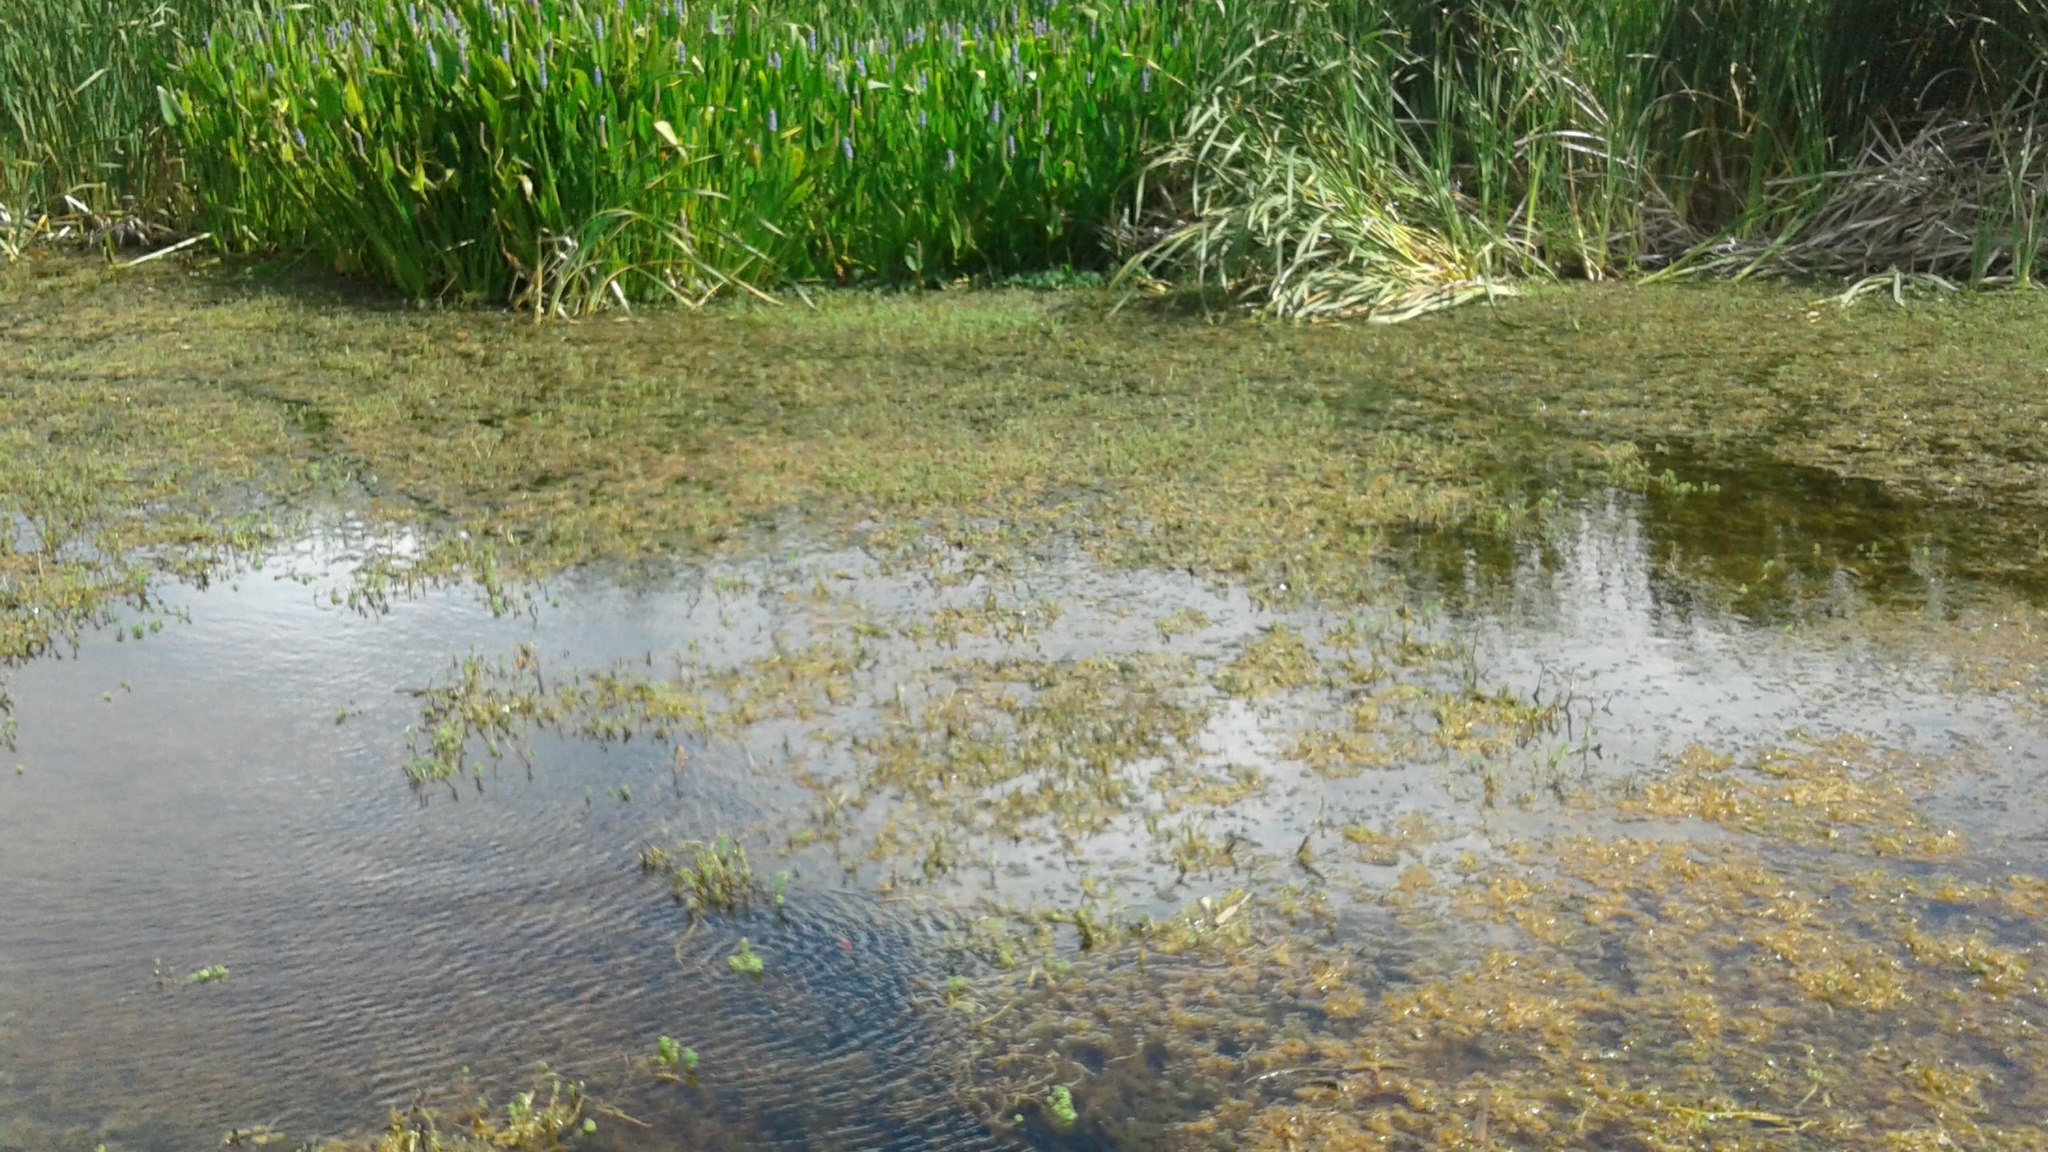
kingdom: Plantae
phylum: Tracheophyta
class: Liliopsida
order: Poales
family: Typhaceae
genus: Typha
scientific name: Typha capensis
